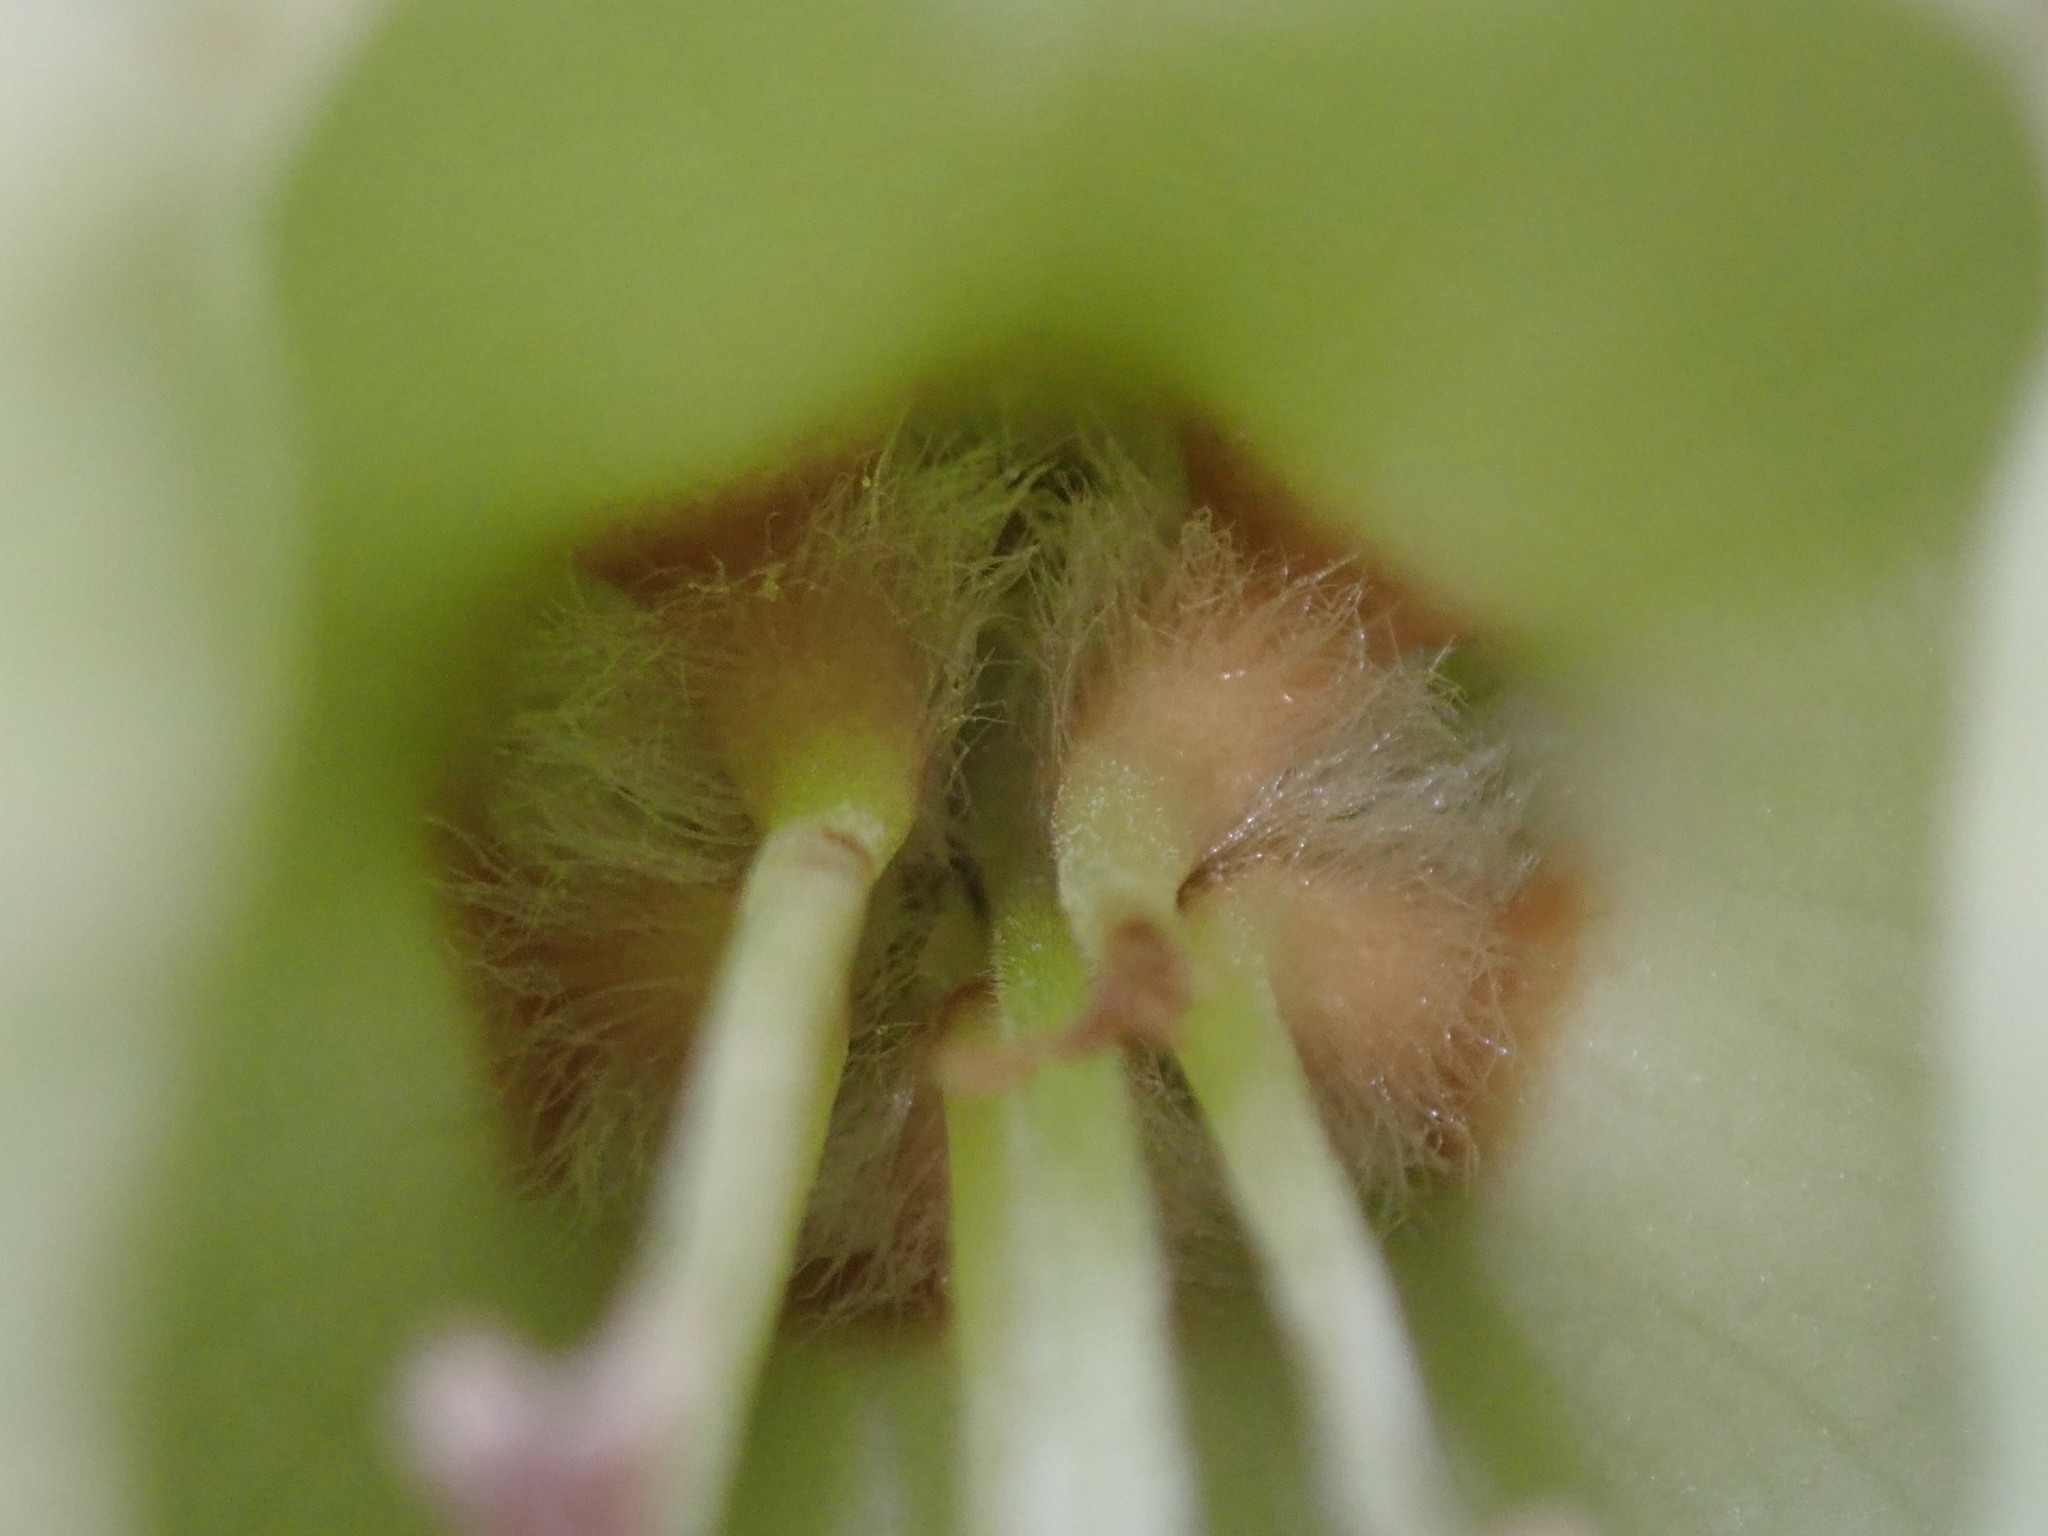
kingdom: Plantae
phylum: Tracheophyta
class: Magnoliopsida
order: Solanales
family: Solanaceae
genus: Trianaea
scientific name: Trianaea nobilis
